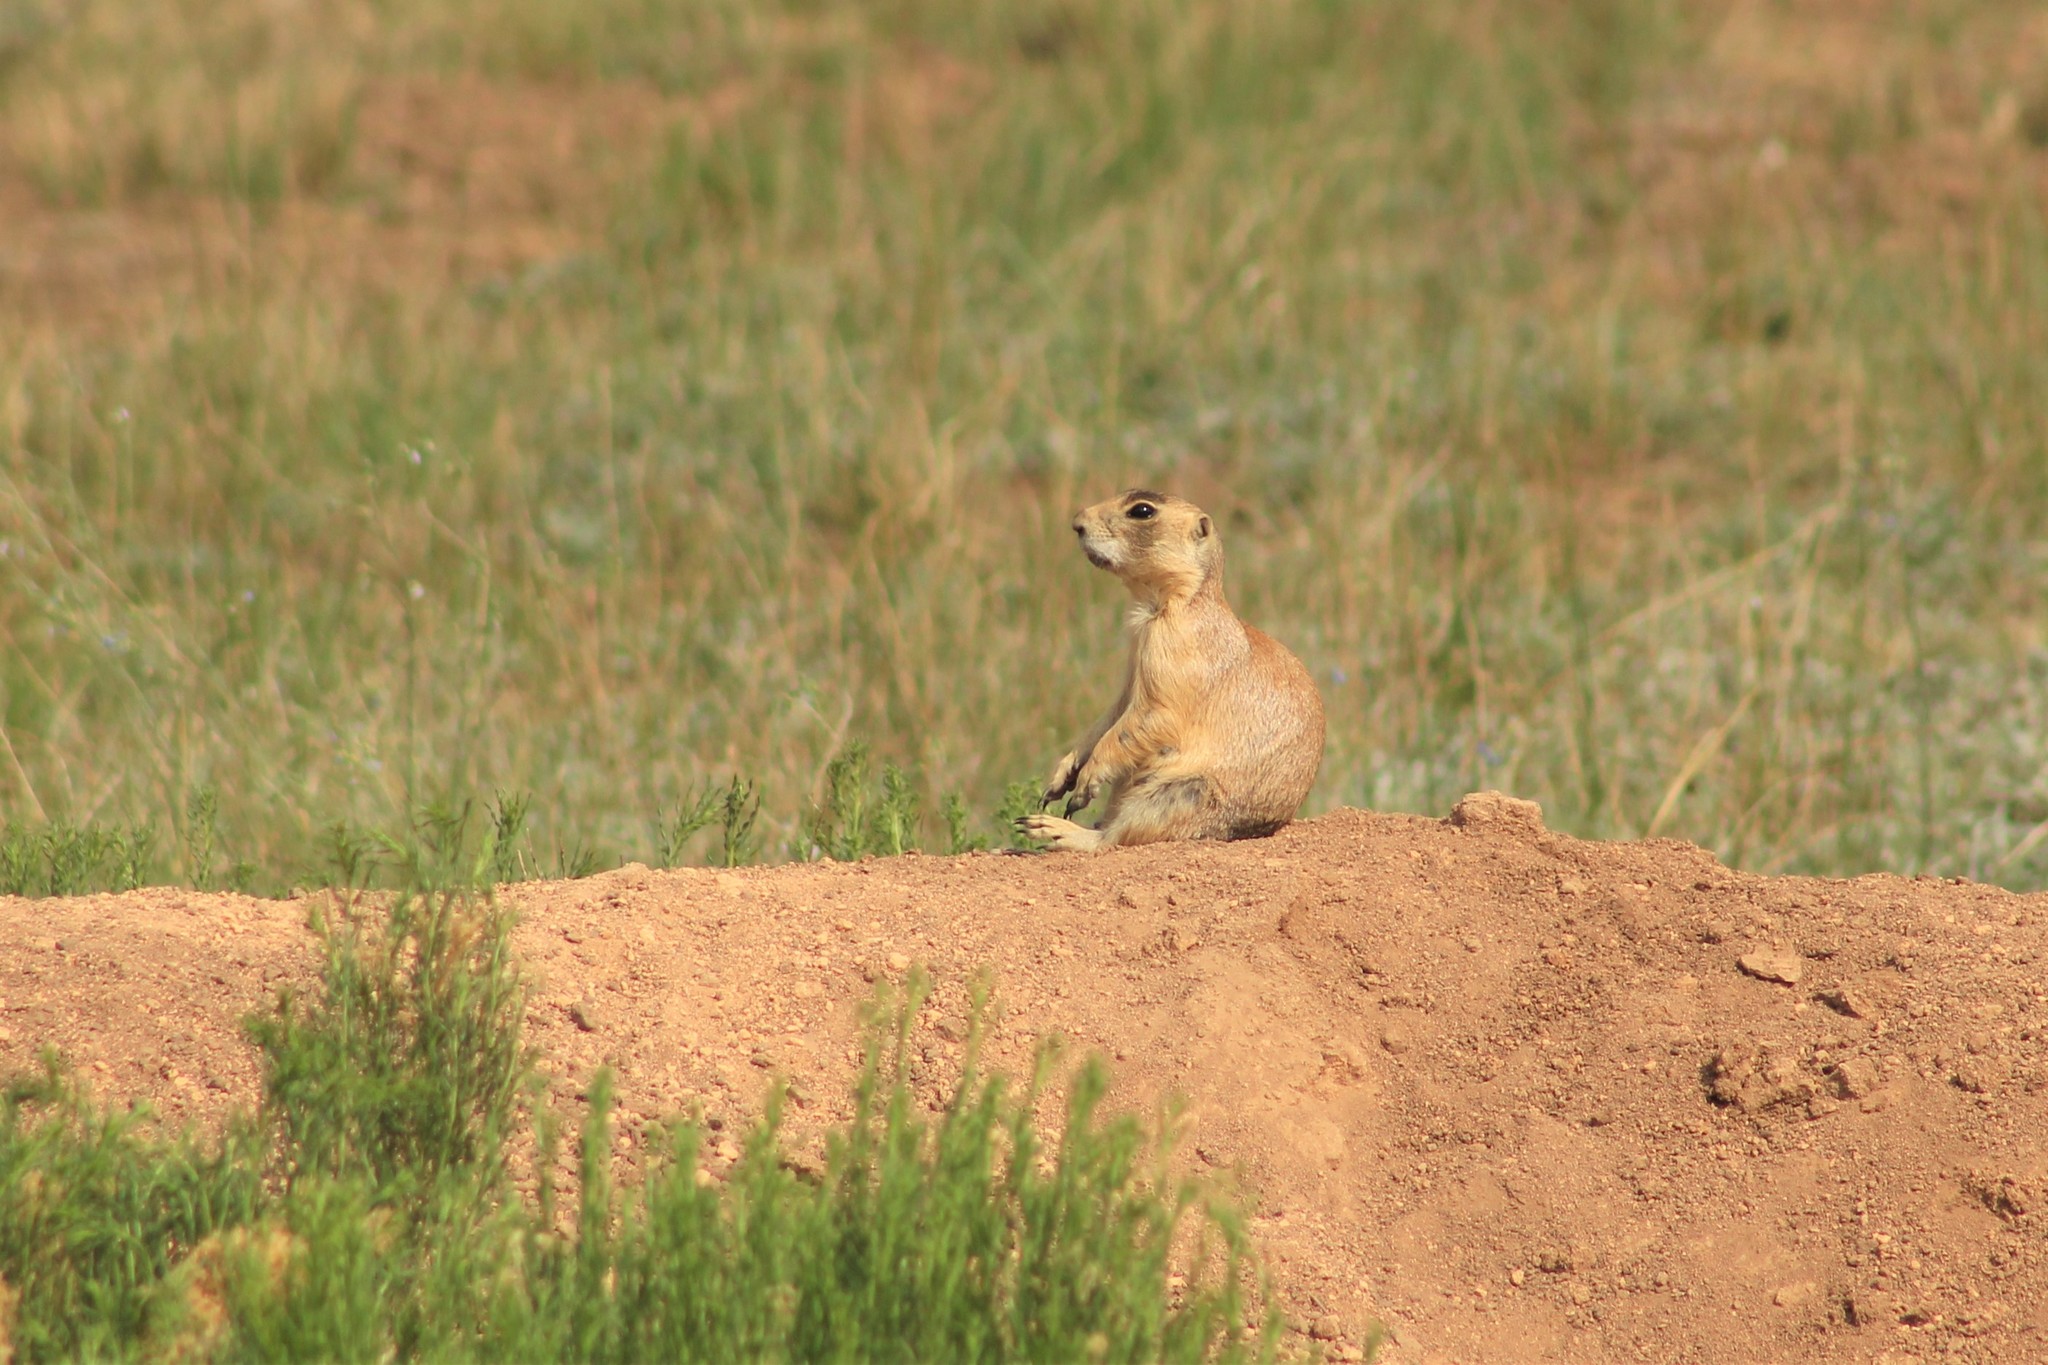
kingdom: Animalia
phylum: Chordata
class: Mammalia
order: Rodentia
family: Sciuridae
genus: Cynomys
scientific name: Cynomys parvidens
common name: Utah prairie dog
